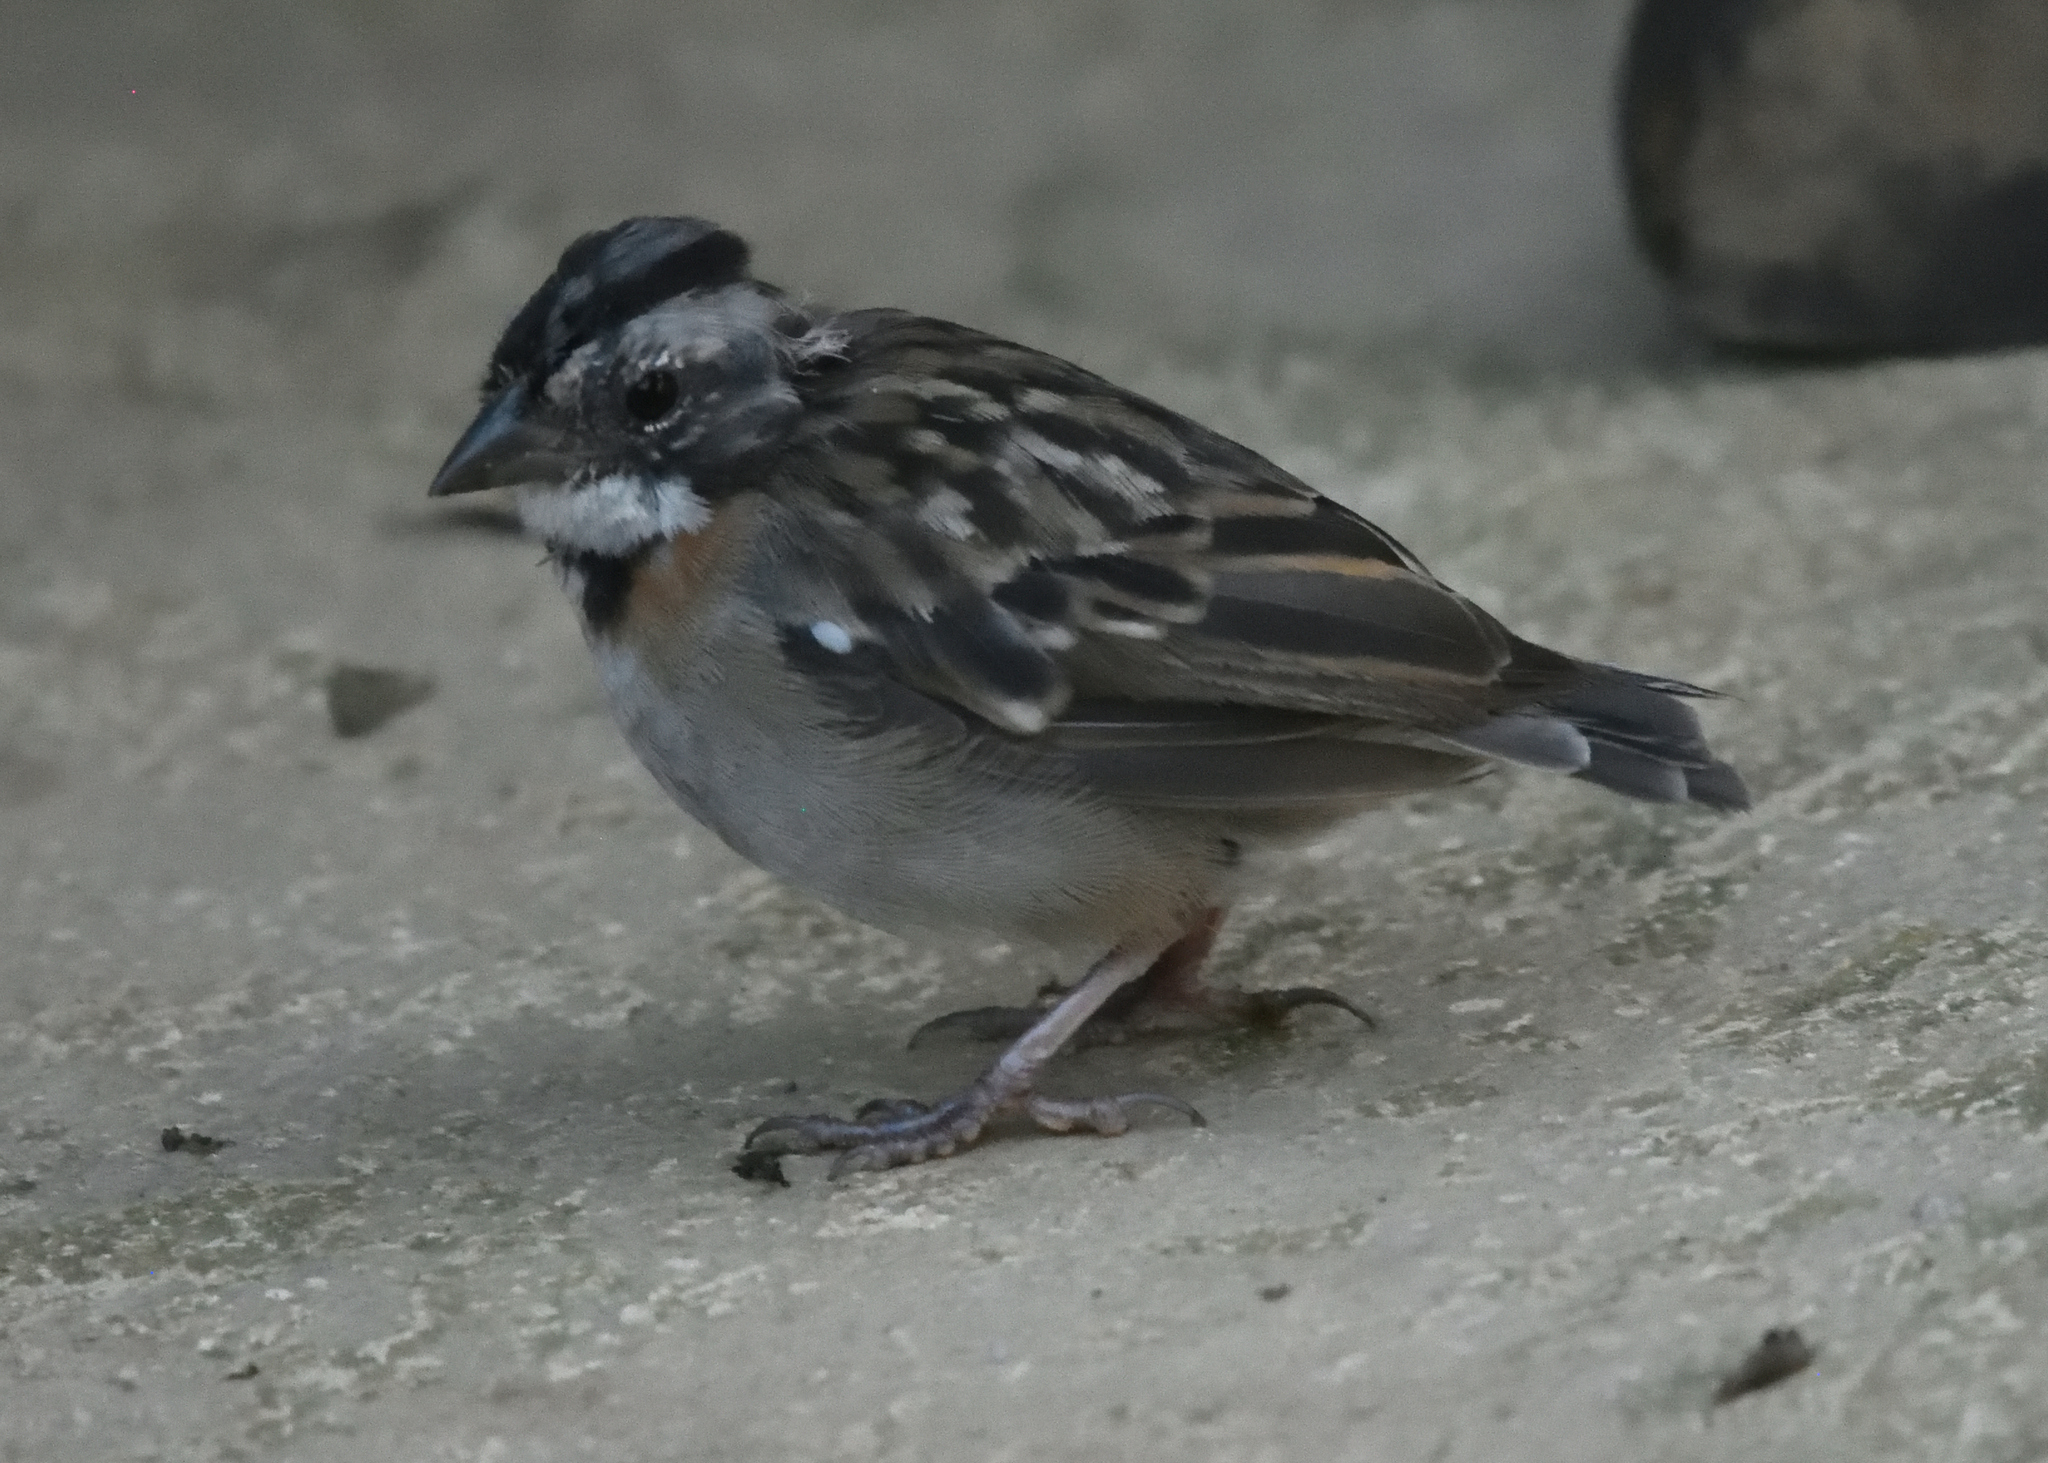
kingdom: Animalia
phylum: Chordata
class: Aves
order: Passeriformes
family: Passerellidae
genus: Zonotrichia
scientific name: Zonotrichia capensis
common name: Rufous-collared sparrow
